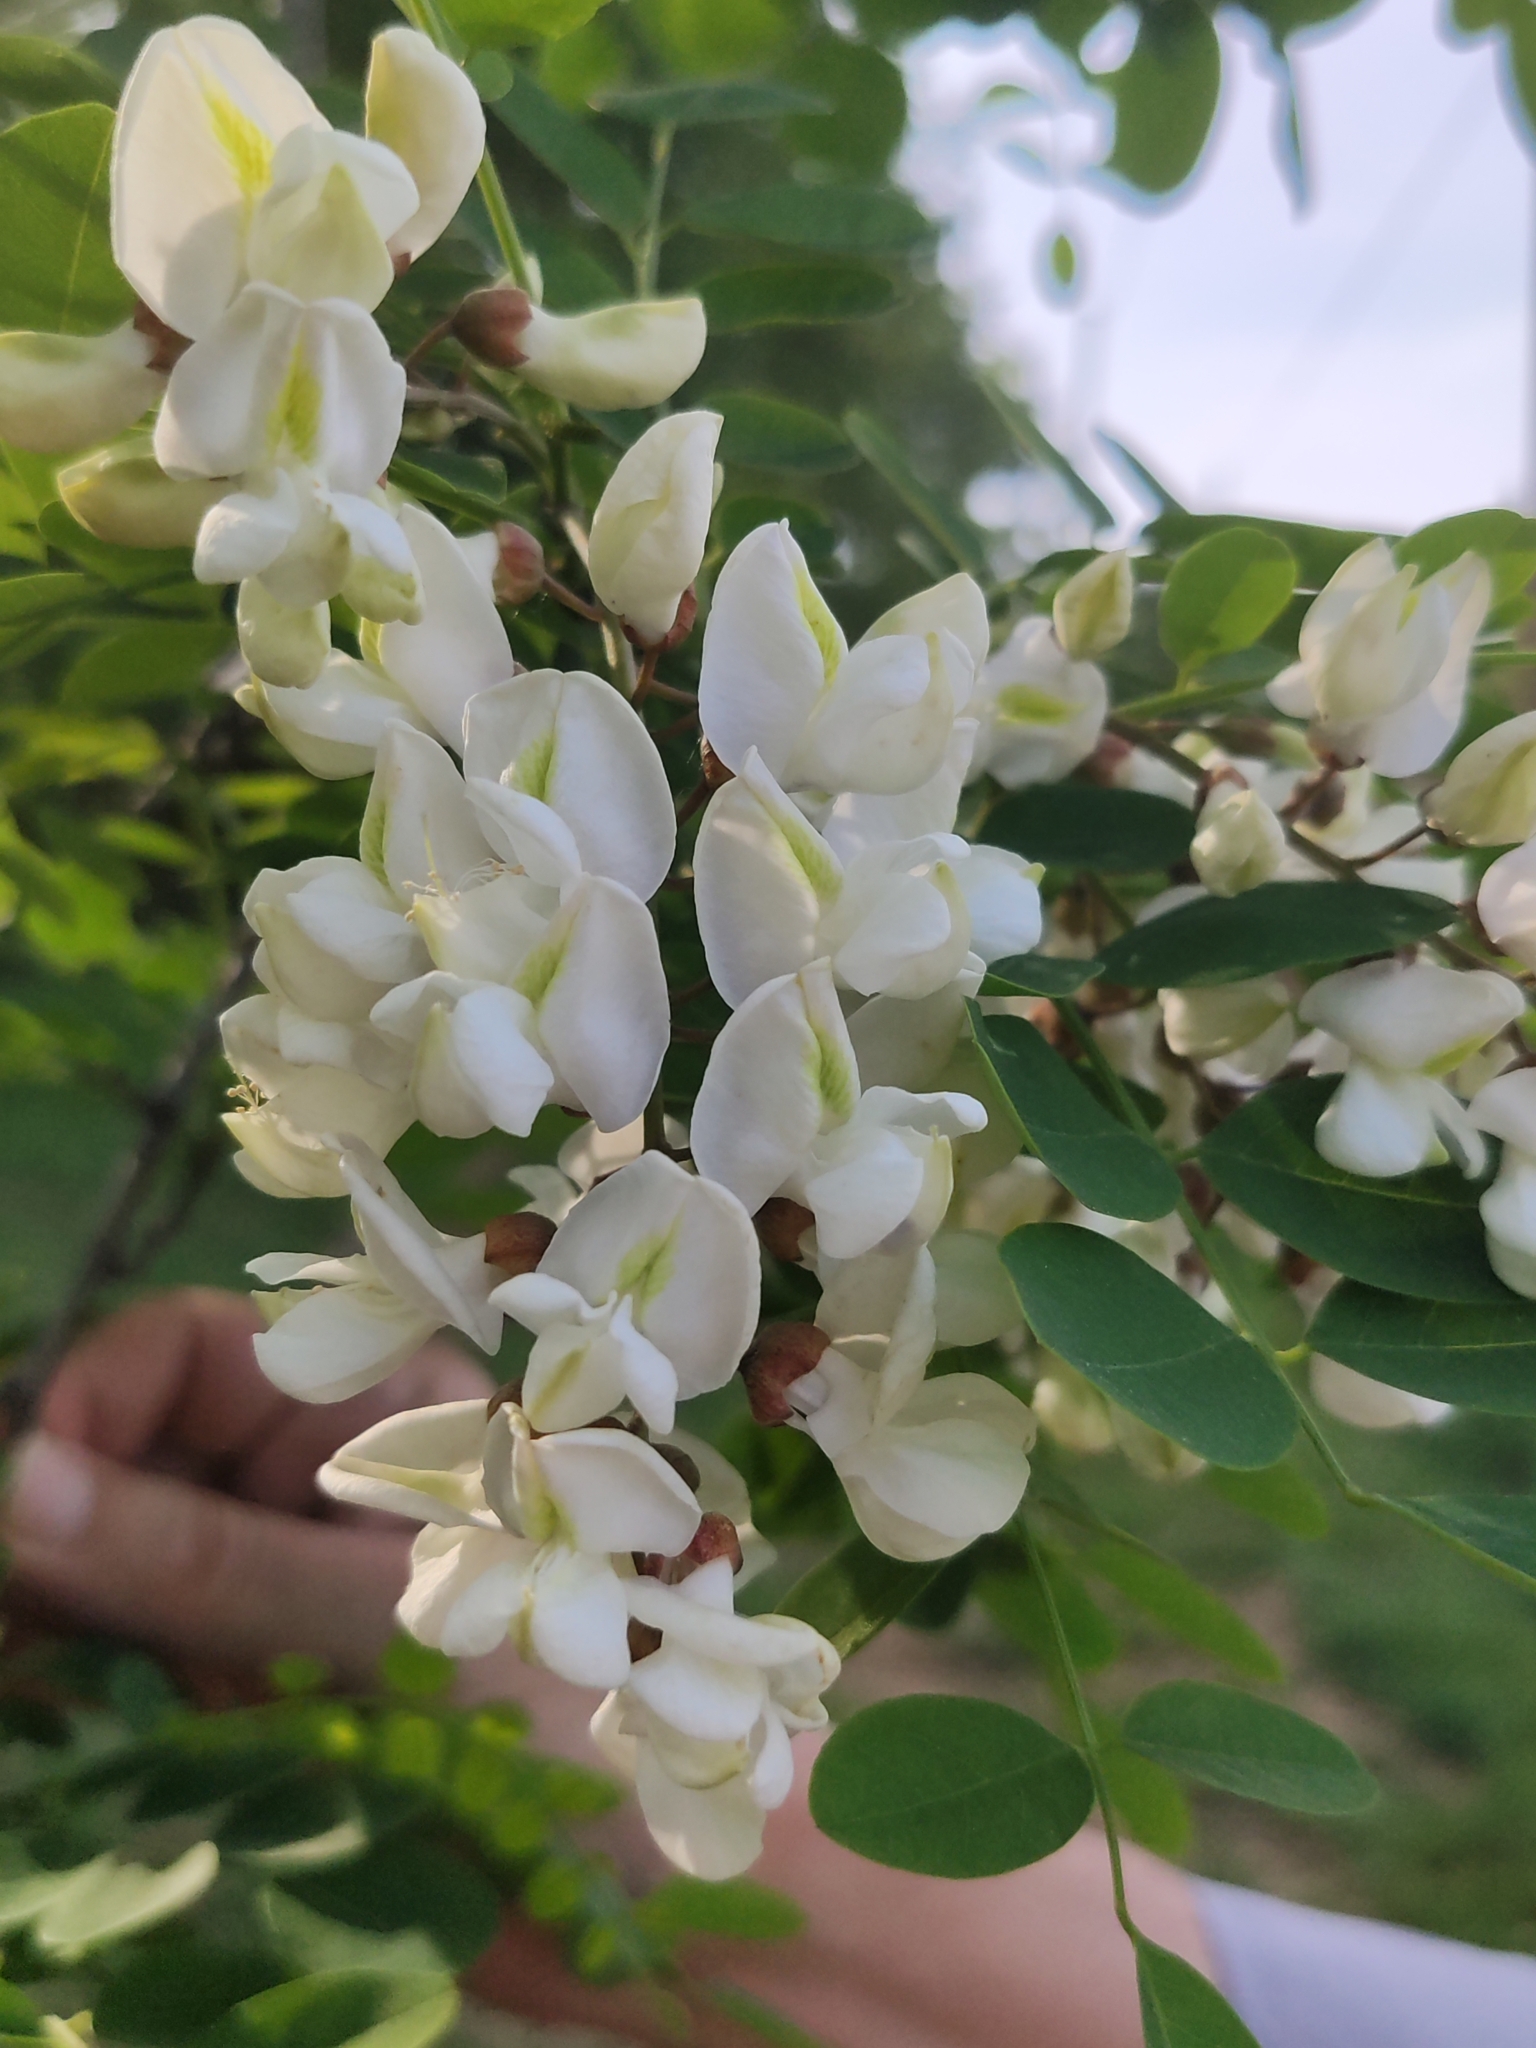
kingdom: Plantae
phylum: Tracheophyta
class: Magnoliopsida
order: Fabales
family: Fabaceae
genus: Robinia
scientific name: Robinia pseudoacacia
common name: Black locust
